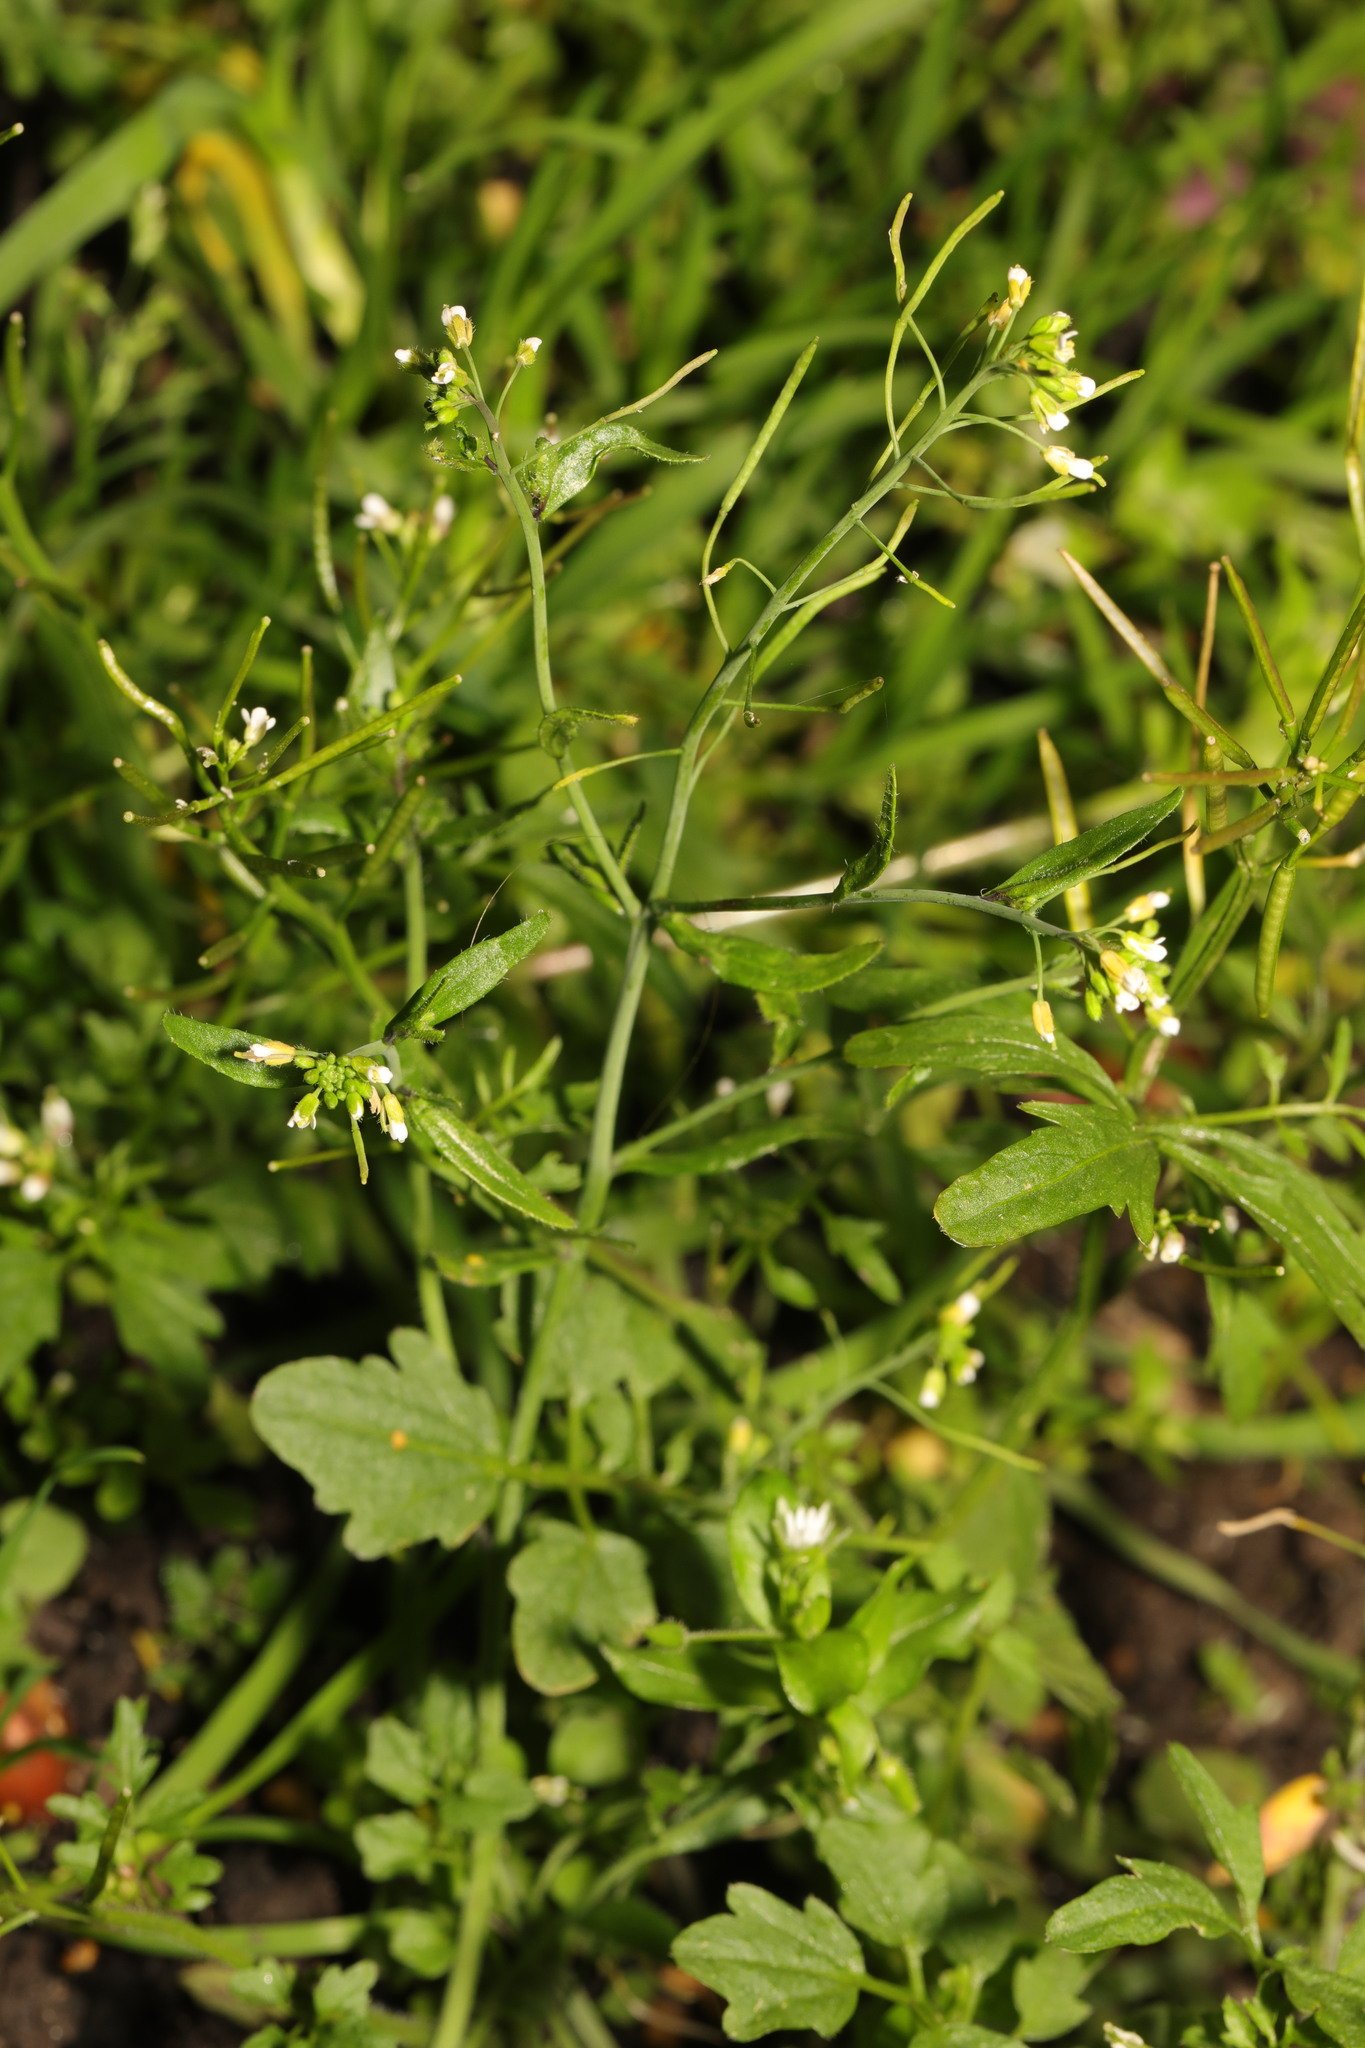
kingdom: Plantae
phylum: Tracheophyta
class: Magnoliopsida
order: Brassicales
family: Brassicaceae
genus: Cardamine
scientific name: Cardamine flexuosa
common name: Woodland bittercress
